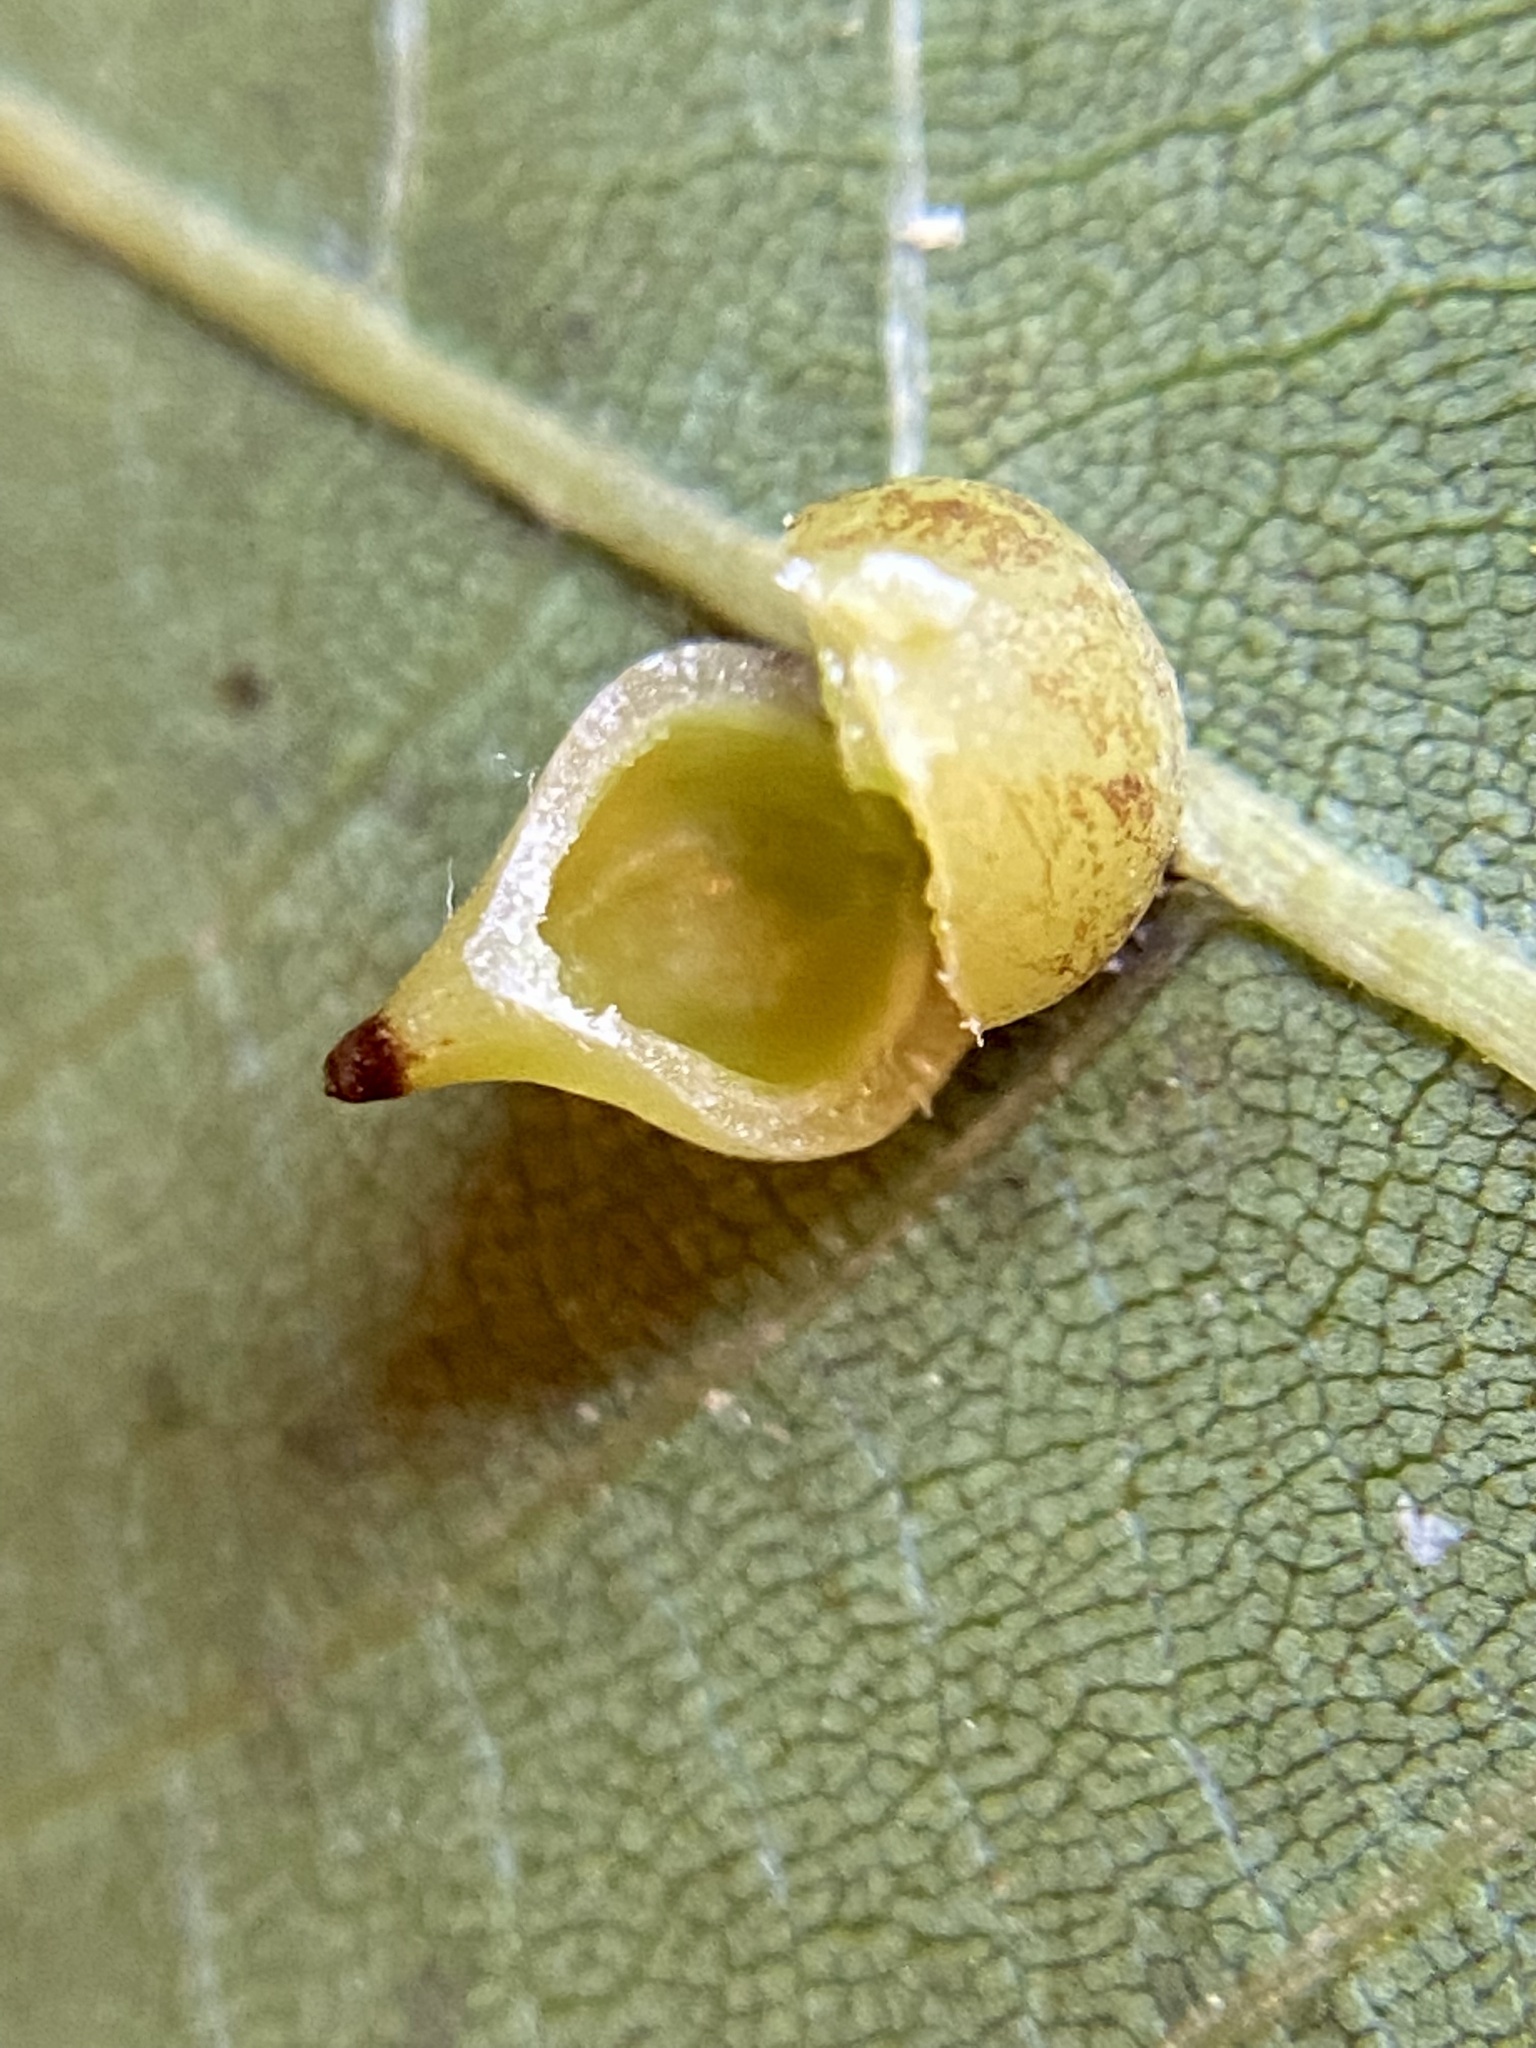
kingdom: Animalia
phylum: Arthropoda
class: Insecta
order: Diptera
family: Cecidomyiidae
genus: Caryomyia
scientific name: Caryomyia caryaecola
